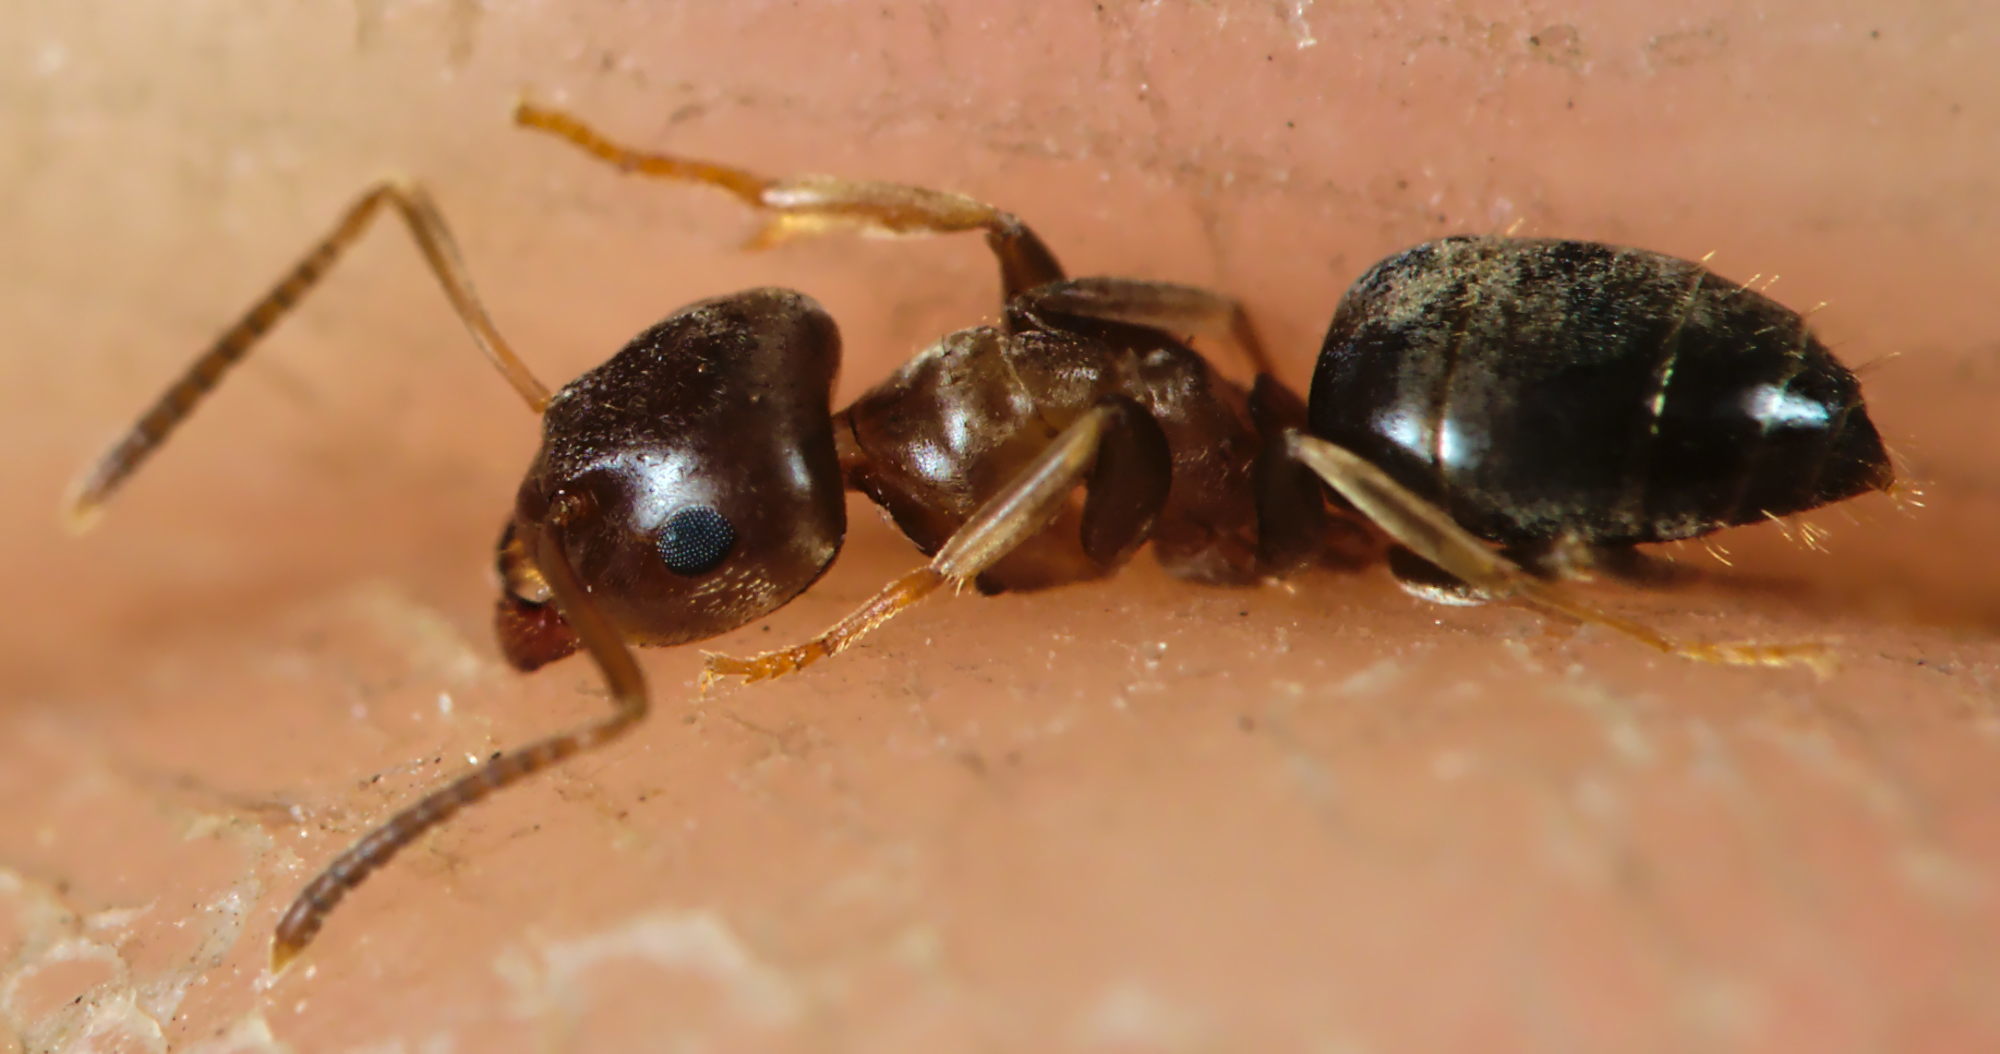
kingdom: Animalia
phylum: Arthropoda
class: Insecta
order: Hymenoptera
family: Formicidae
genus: Lasius
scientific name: Lasius brunneus
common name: Brown ant
